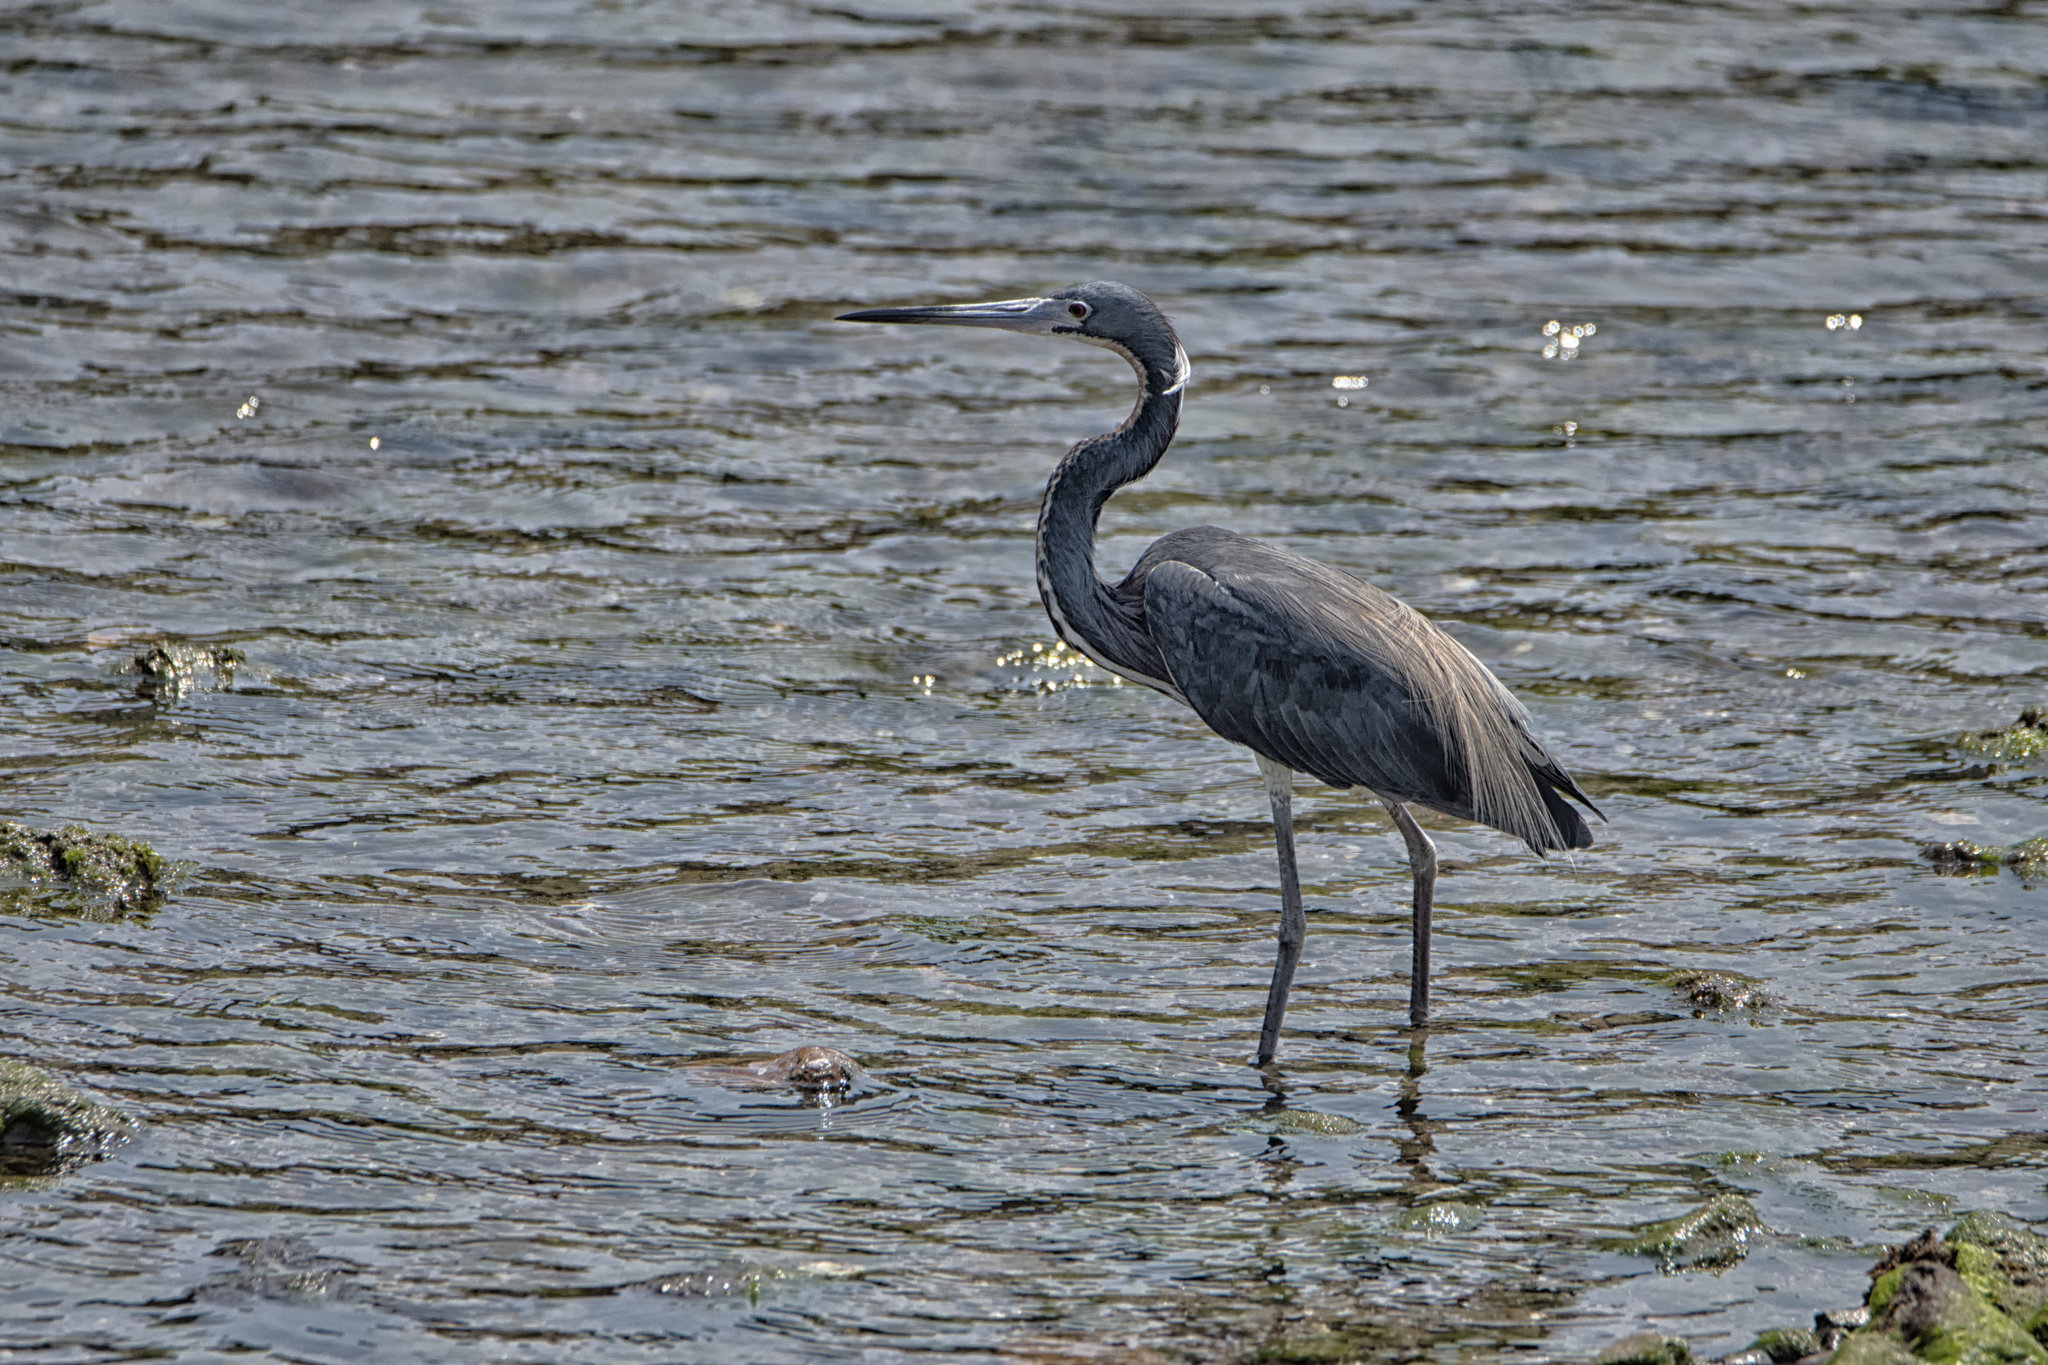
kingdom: Animalia
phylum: Chordata
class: Aves
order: Pelecaniformes
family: Ardeidae
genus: Egretta
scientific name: Egretta tricolor
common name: Tricolored heron
